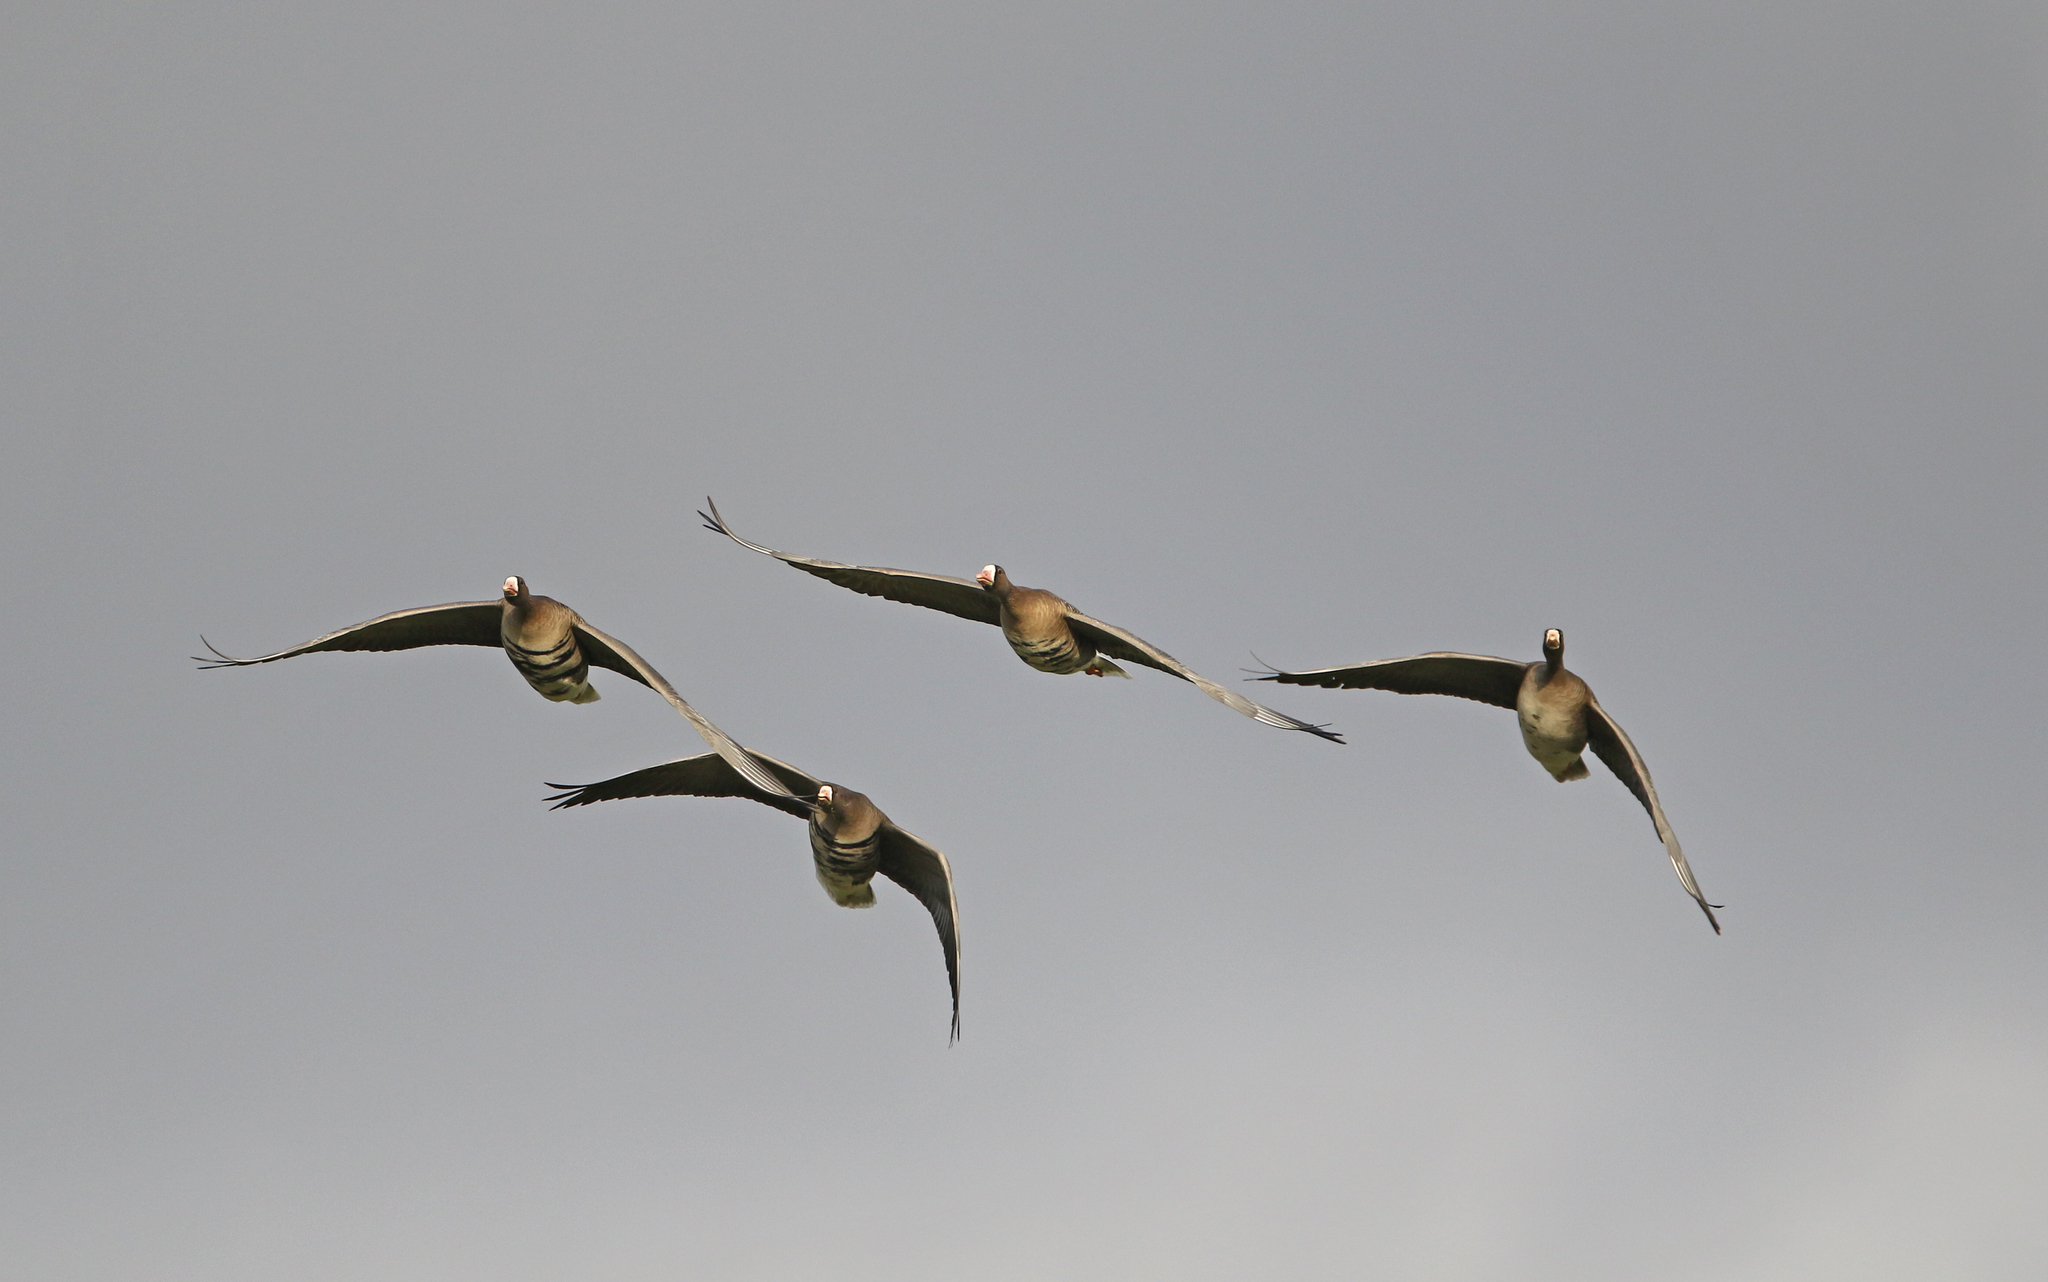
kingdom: Animalia
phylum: Chordata
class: Aves
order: Anseriformes
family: Anatidae
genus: Anser
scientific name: Anser albifrons
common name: Greater white-fronted goose
